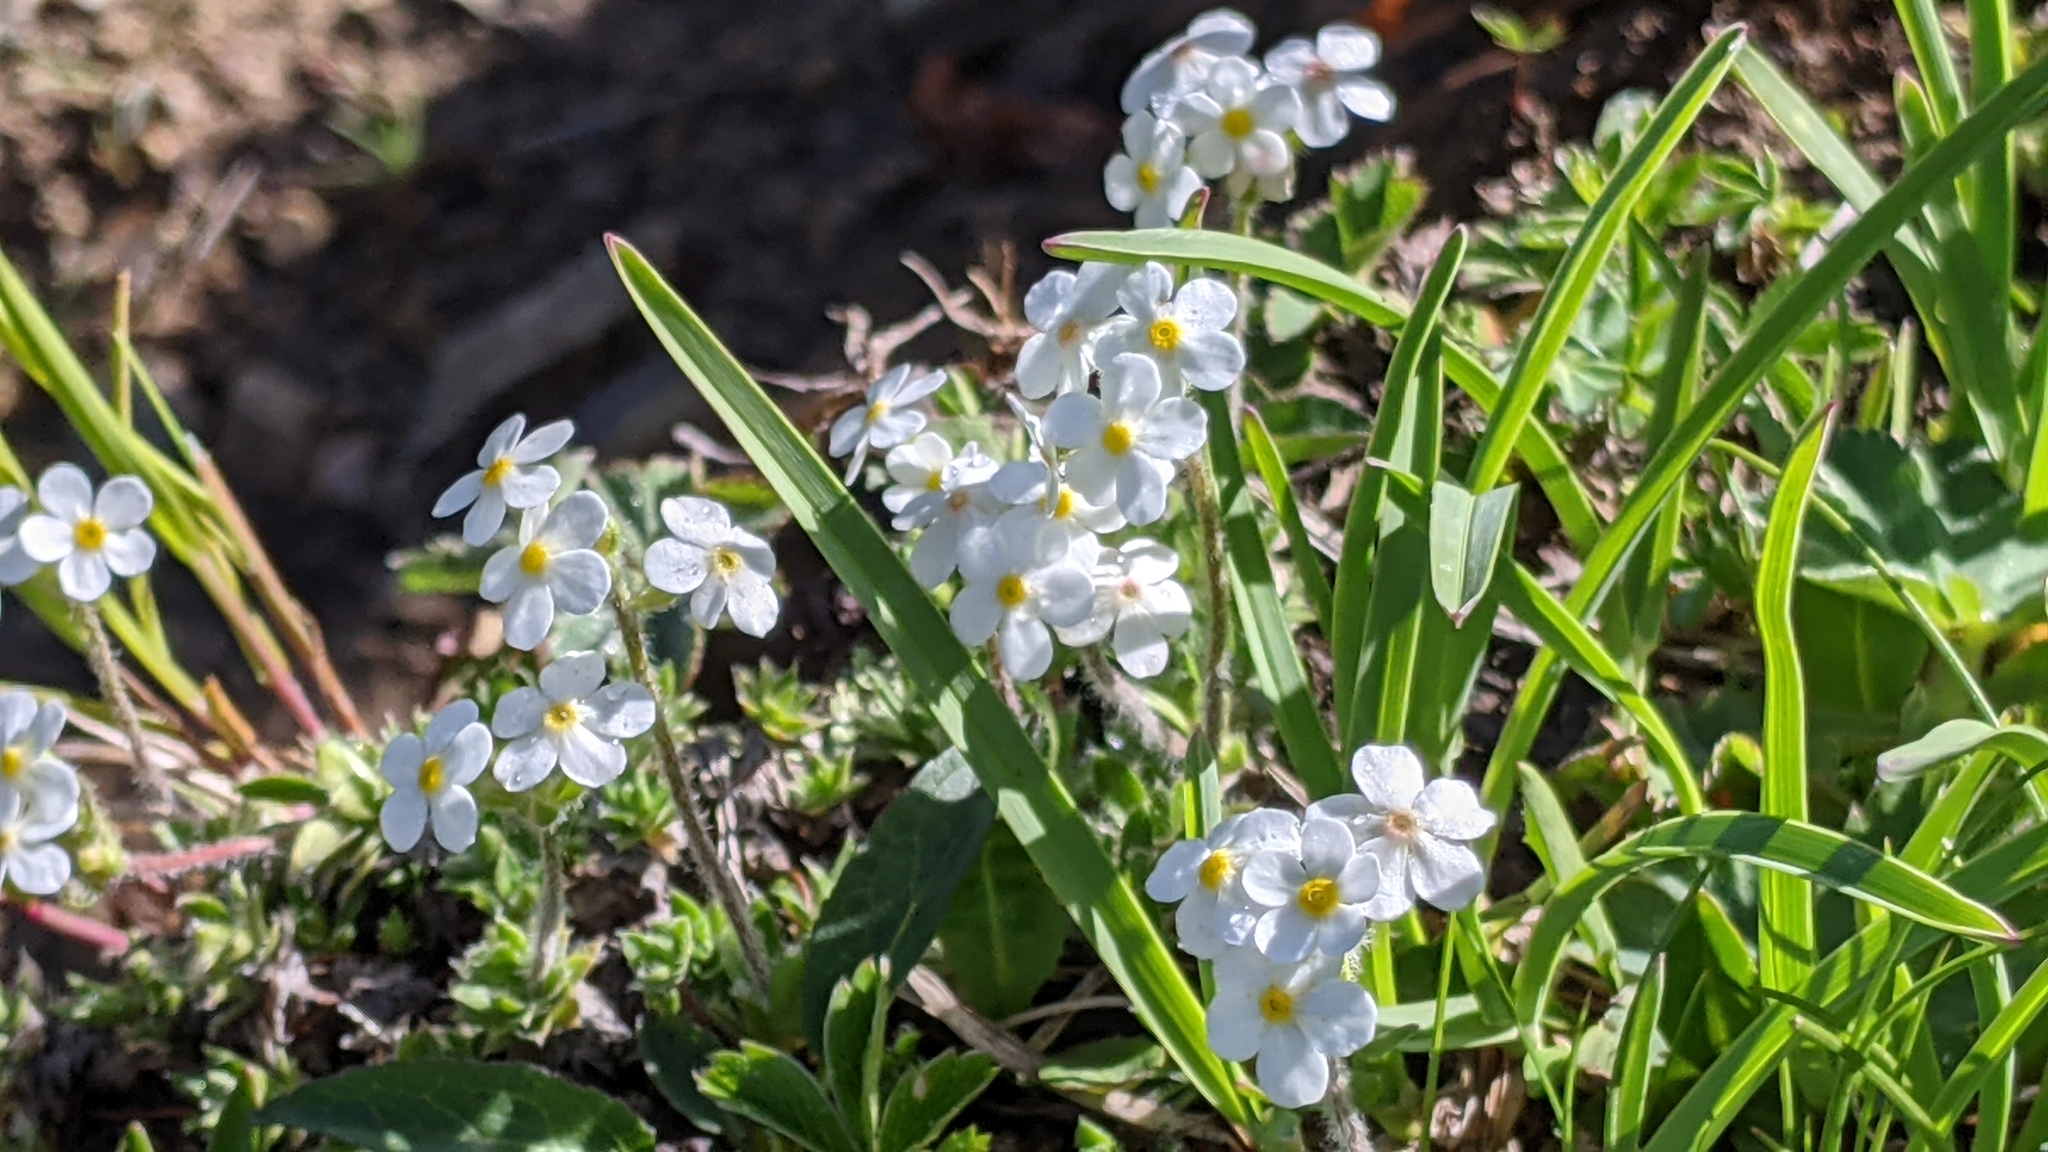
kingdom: Plantae
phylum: Tracheophyta
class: Magnoliopsida
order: Ericales
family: Primulaceae
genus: Androsace
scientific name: Androsace chamaejasme
